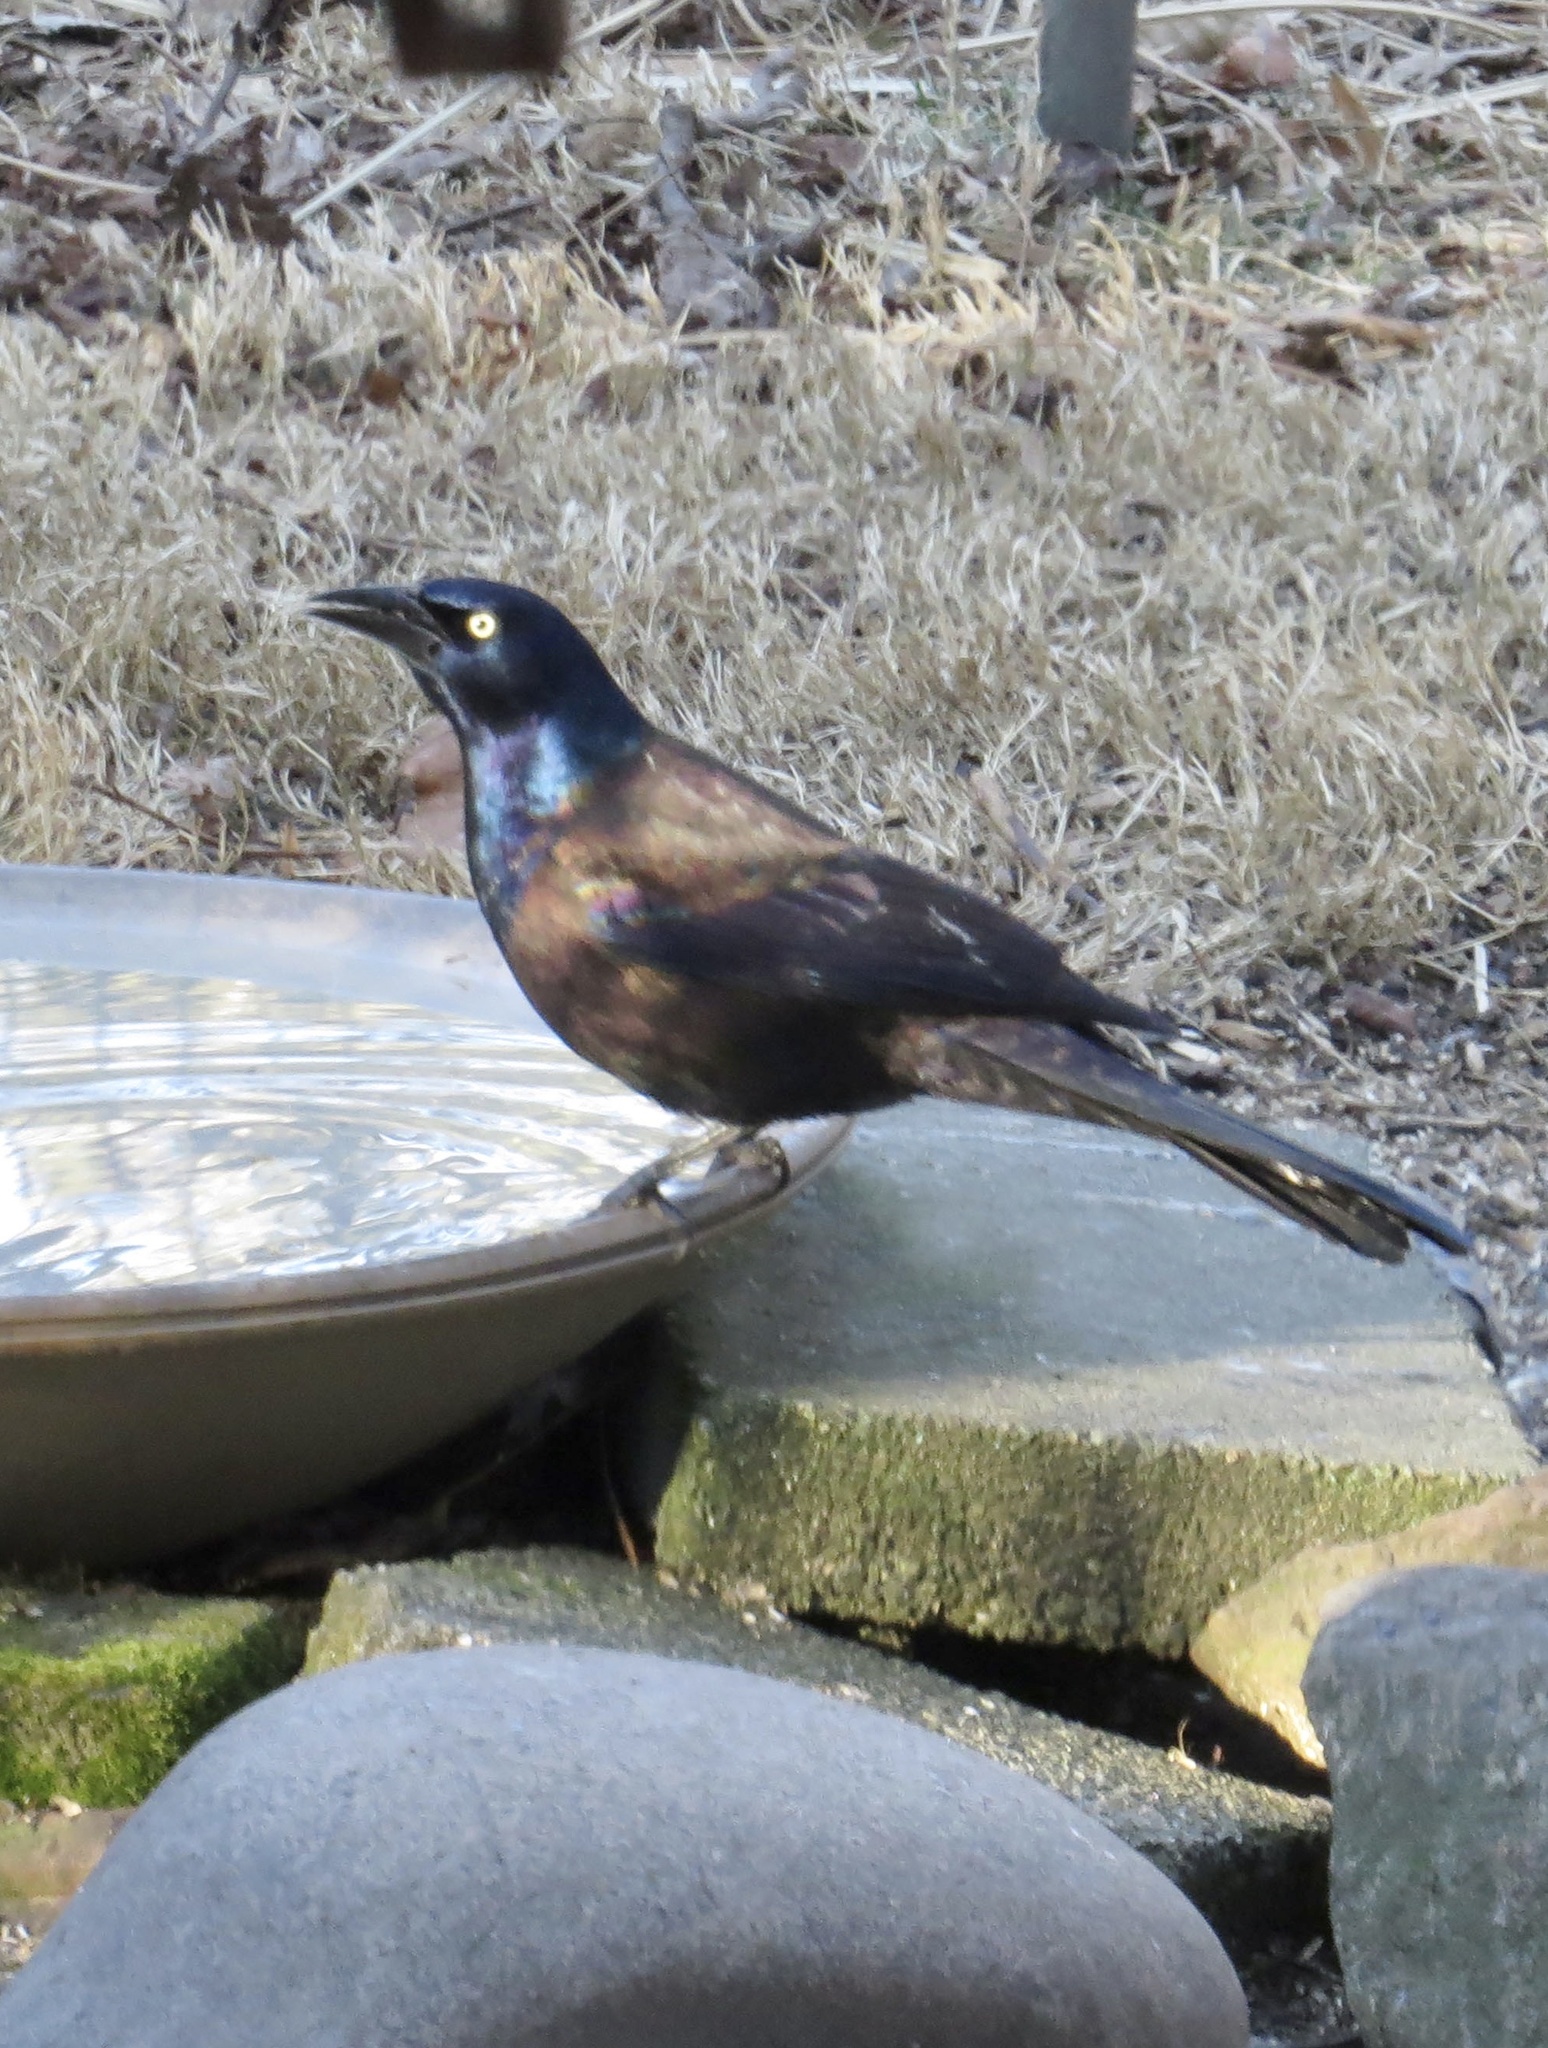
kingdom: Animalia
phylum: Chordata
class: Aves
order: Passeriformes
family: Icteridae
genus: Quiscalus
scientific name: Quiscalus quiscula
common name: Common grackle
